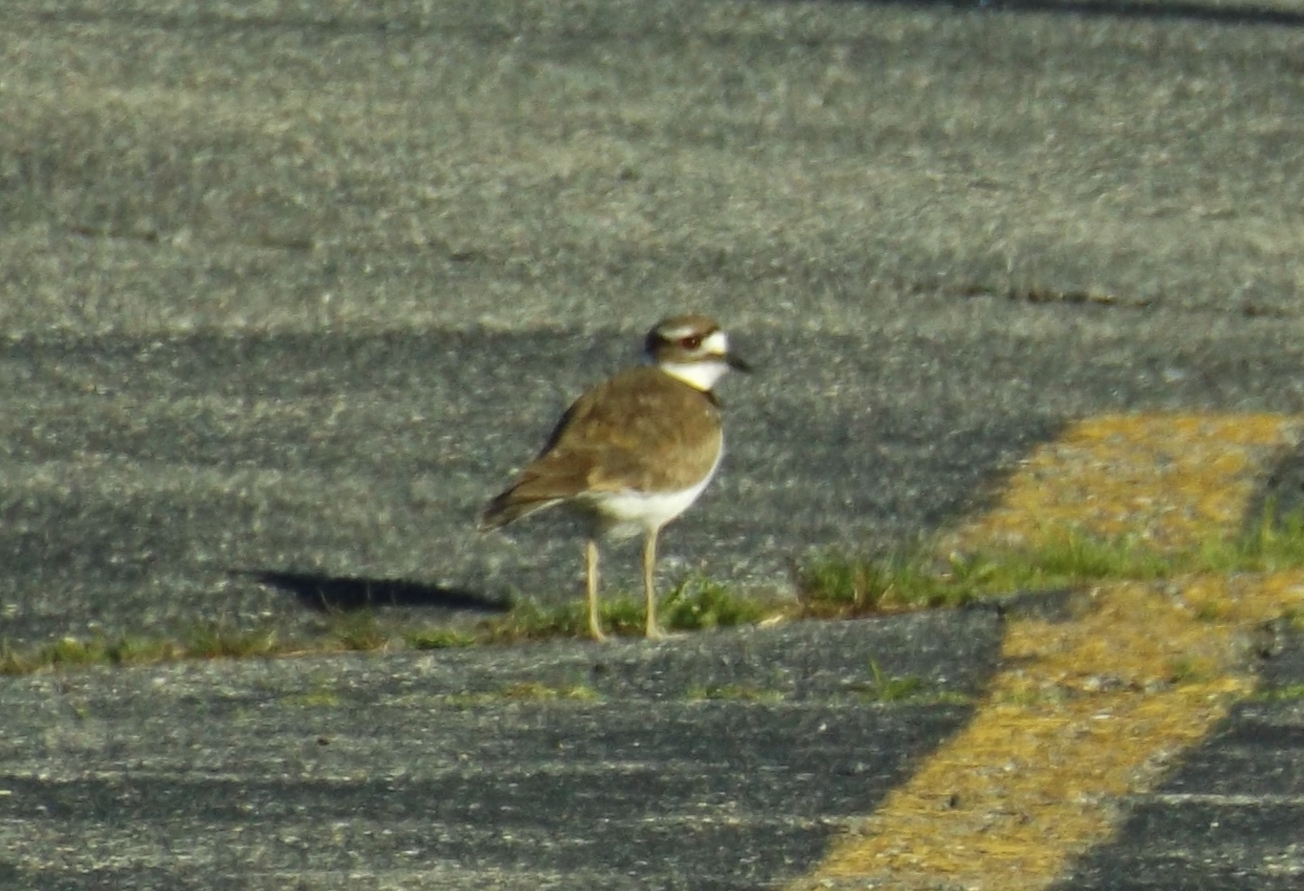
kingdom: Animalia
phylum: Chordata
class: Aves
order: Charadriiformes
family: Charadriidae
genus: Charadrius
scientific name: Charadrius vociferus
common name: Killdeer
